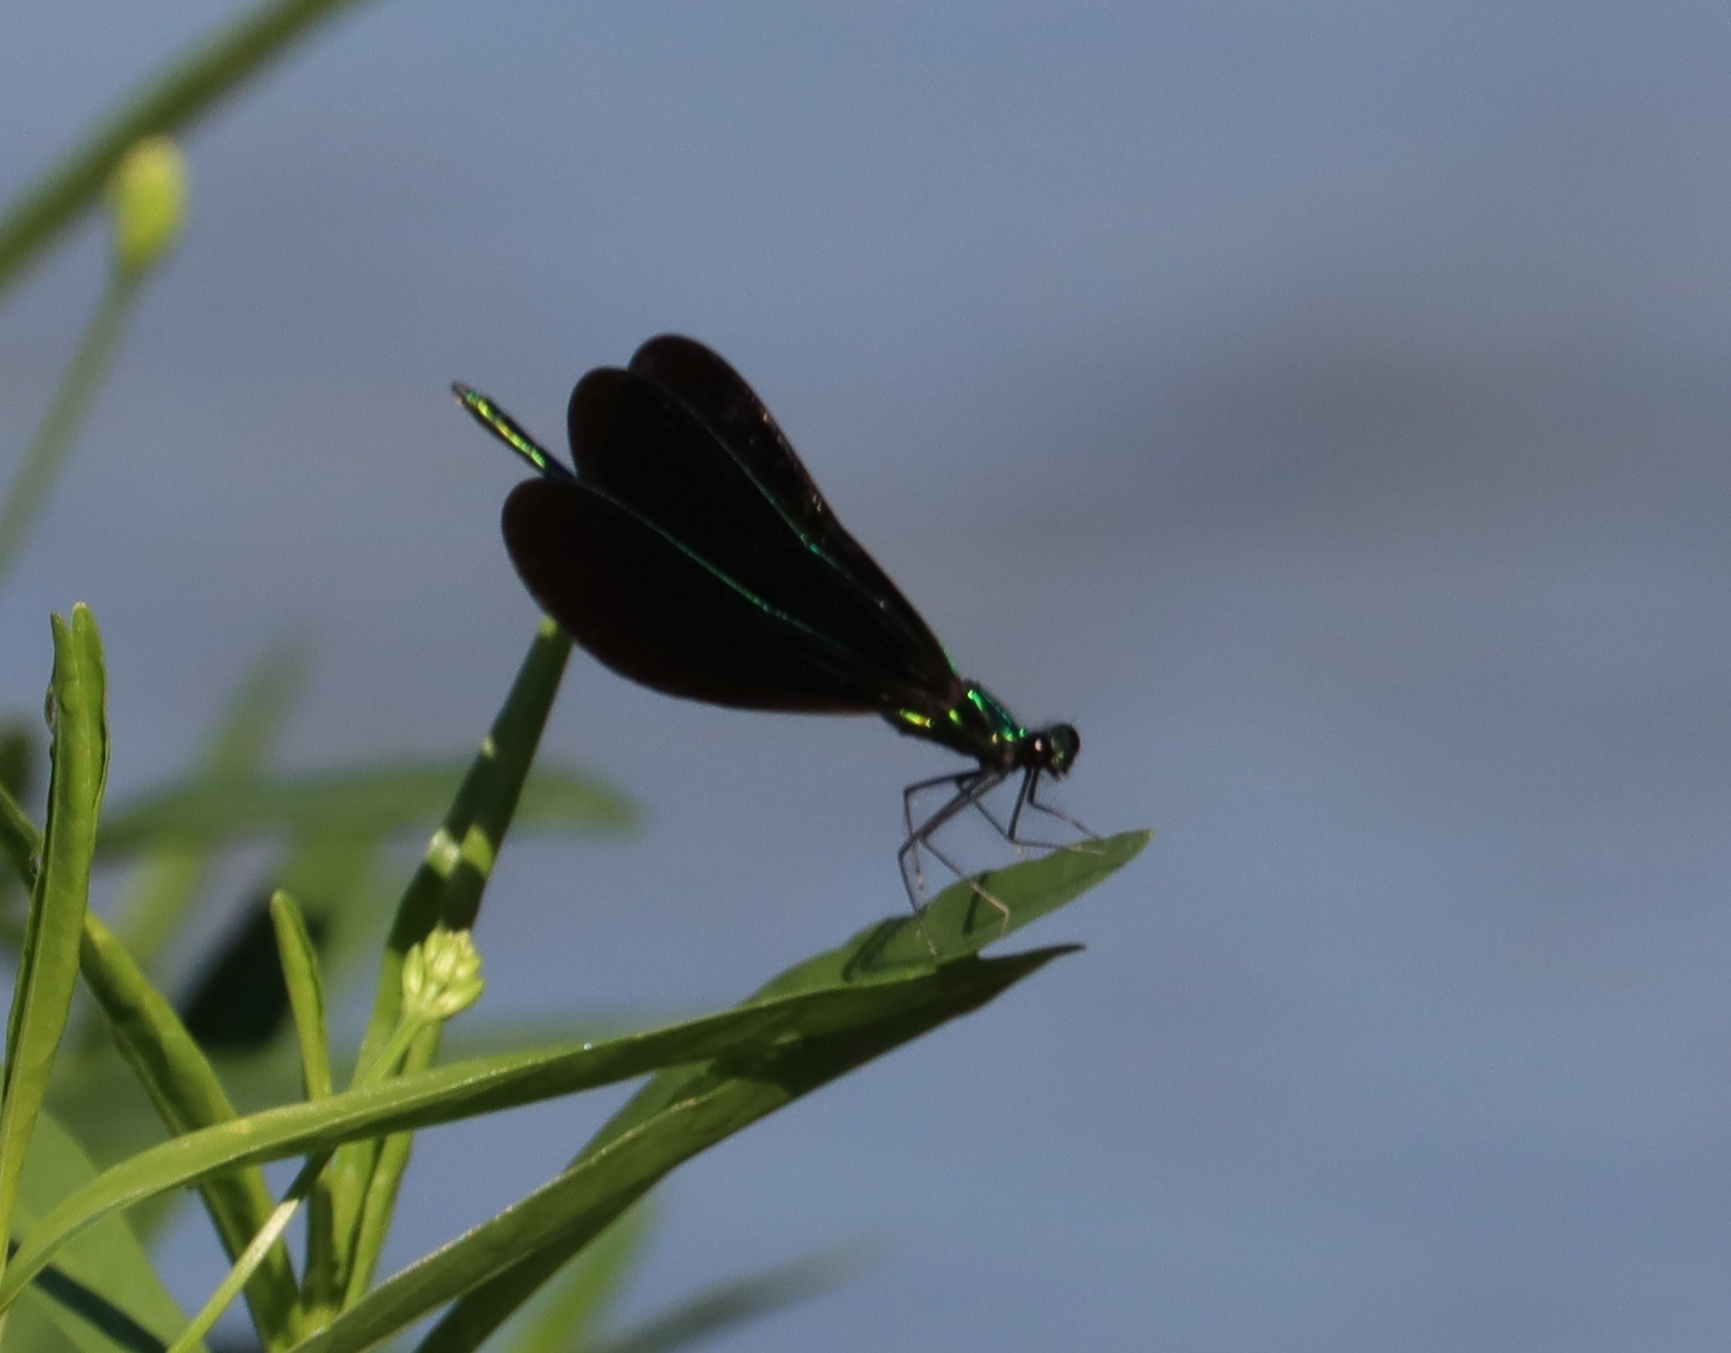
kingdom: Animalia
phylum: Arthropoda
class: Insecta
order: Odonata
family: Calopterygidae
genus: Calopteryx
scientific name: Calopteryx maculata
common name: Ebony jewelwing
